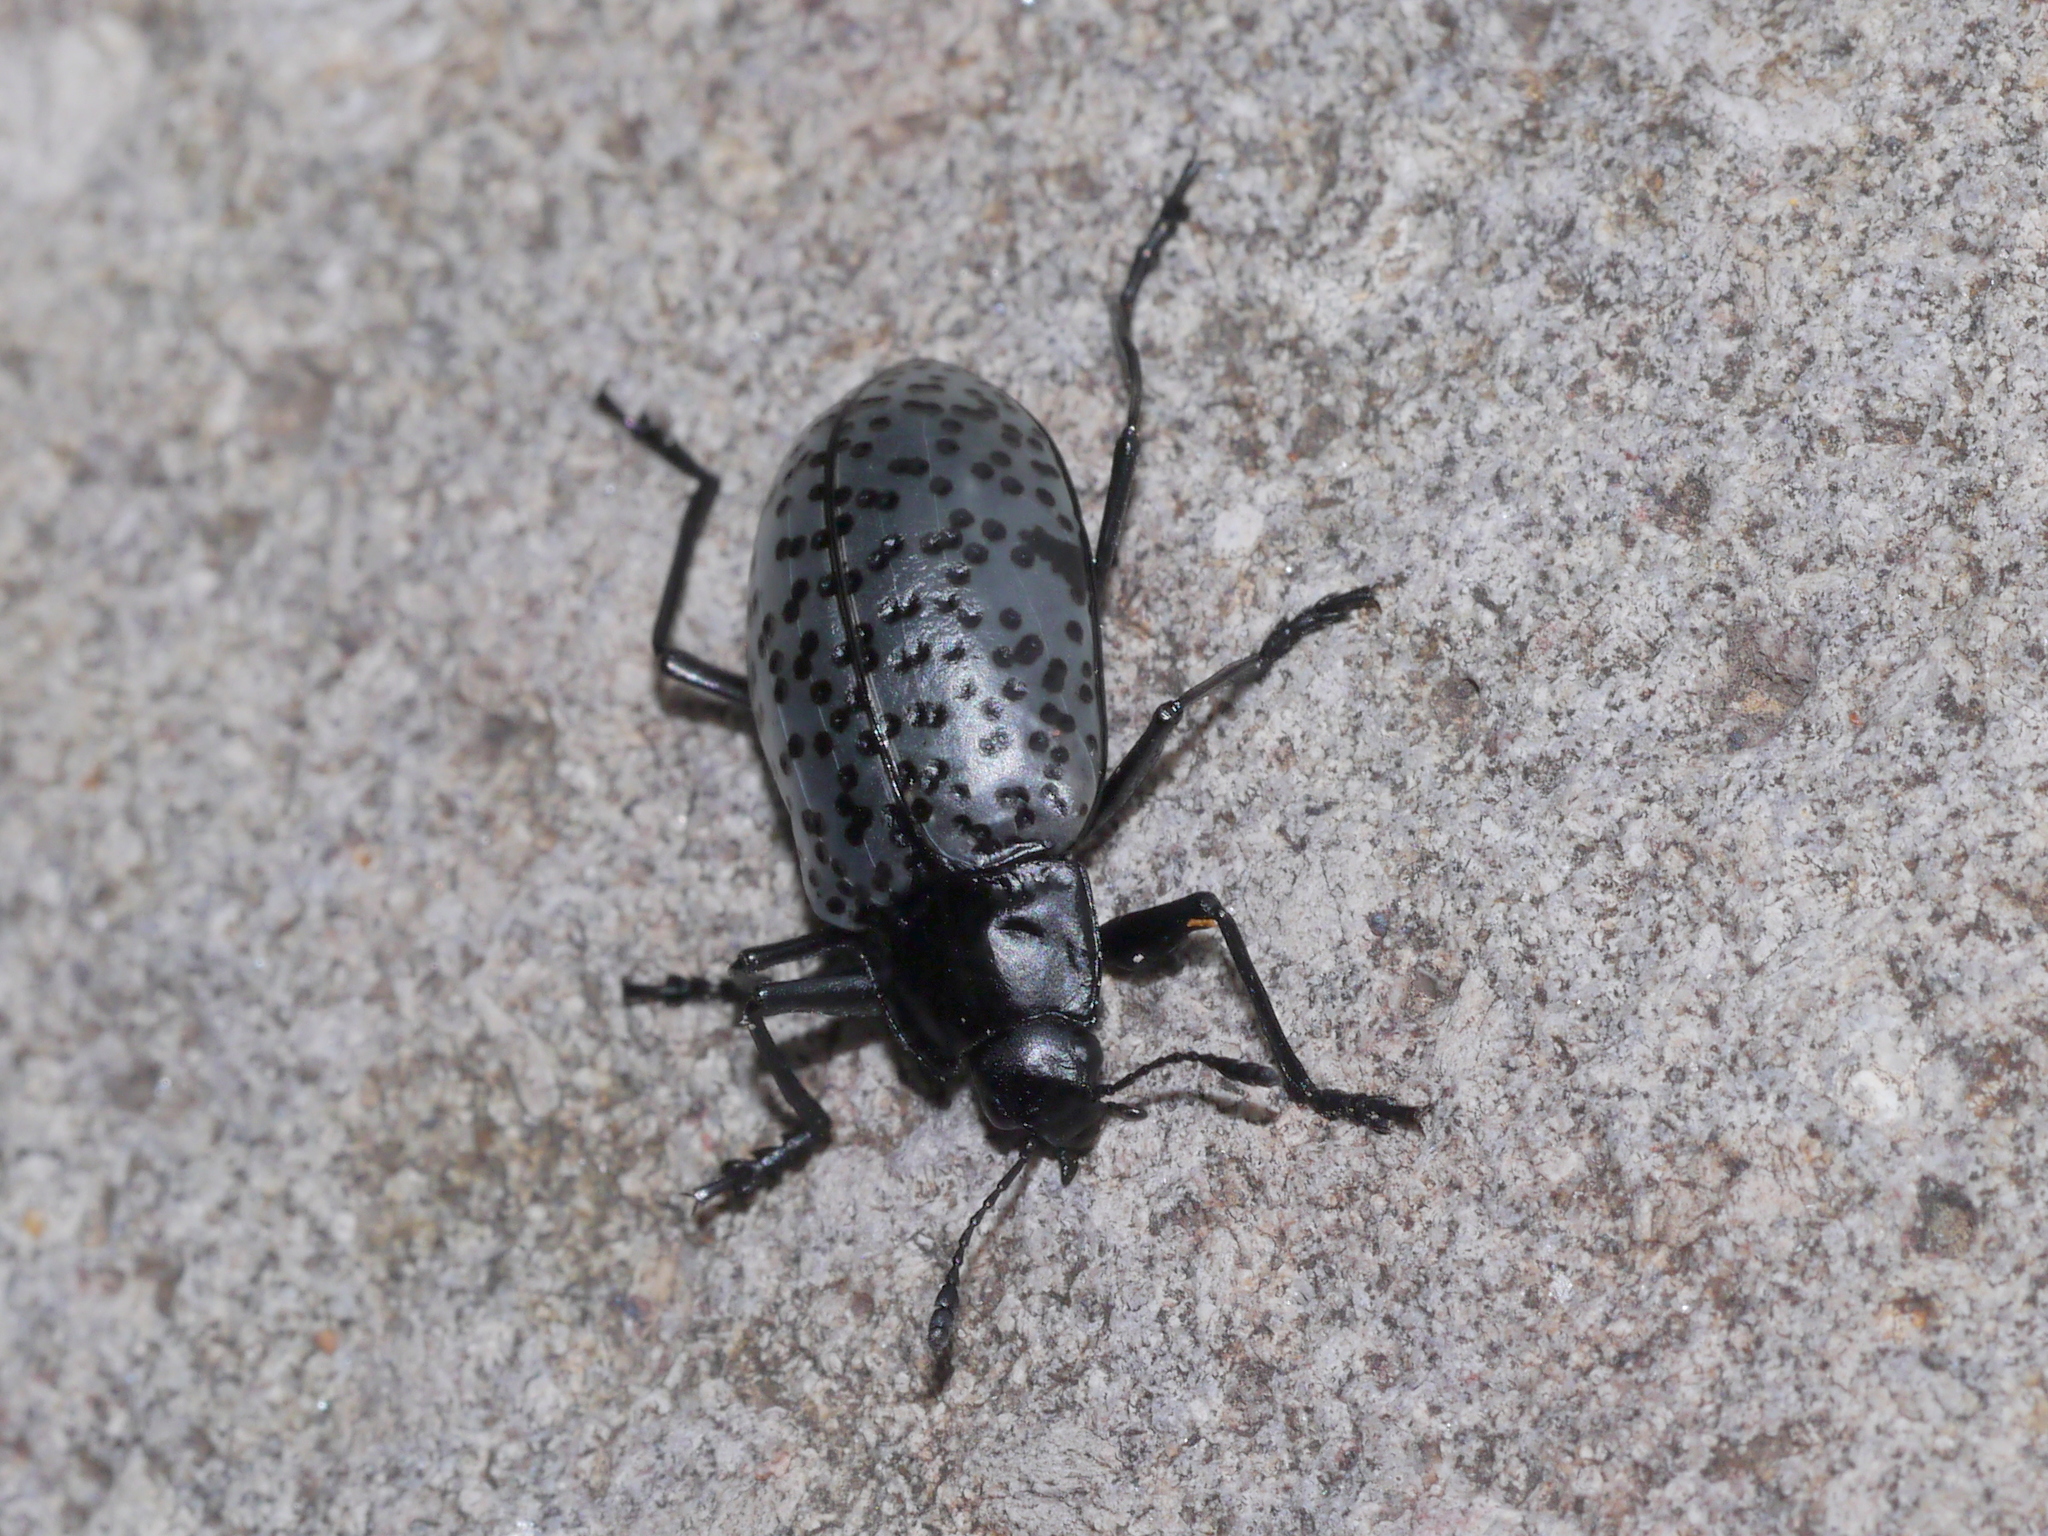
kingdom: Animalia
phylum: Arthropoda
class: Insecta
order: Coleoptera
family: Erotylidae
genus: Gibbifer
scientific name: Gibbifer californicus
